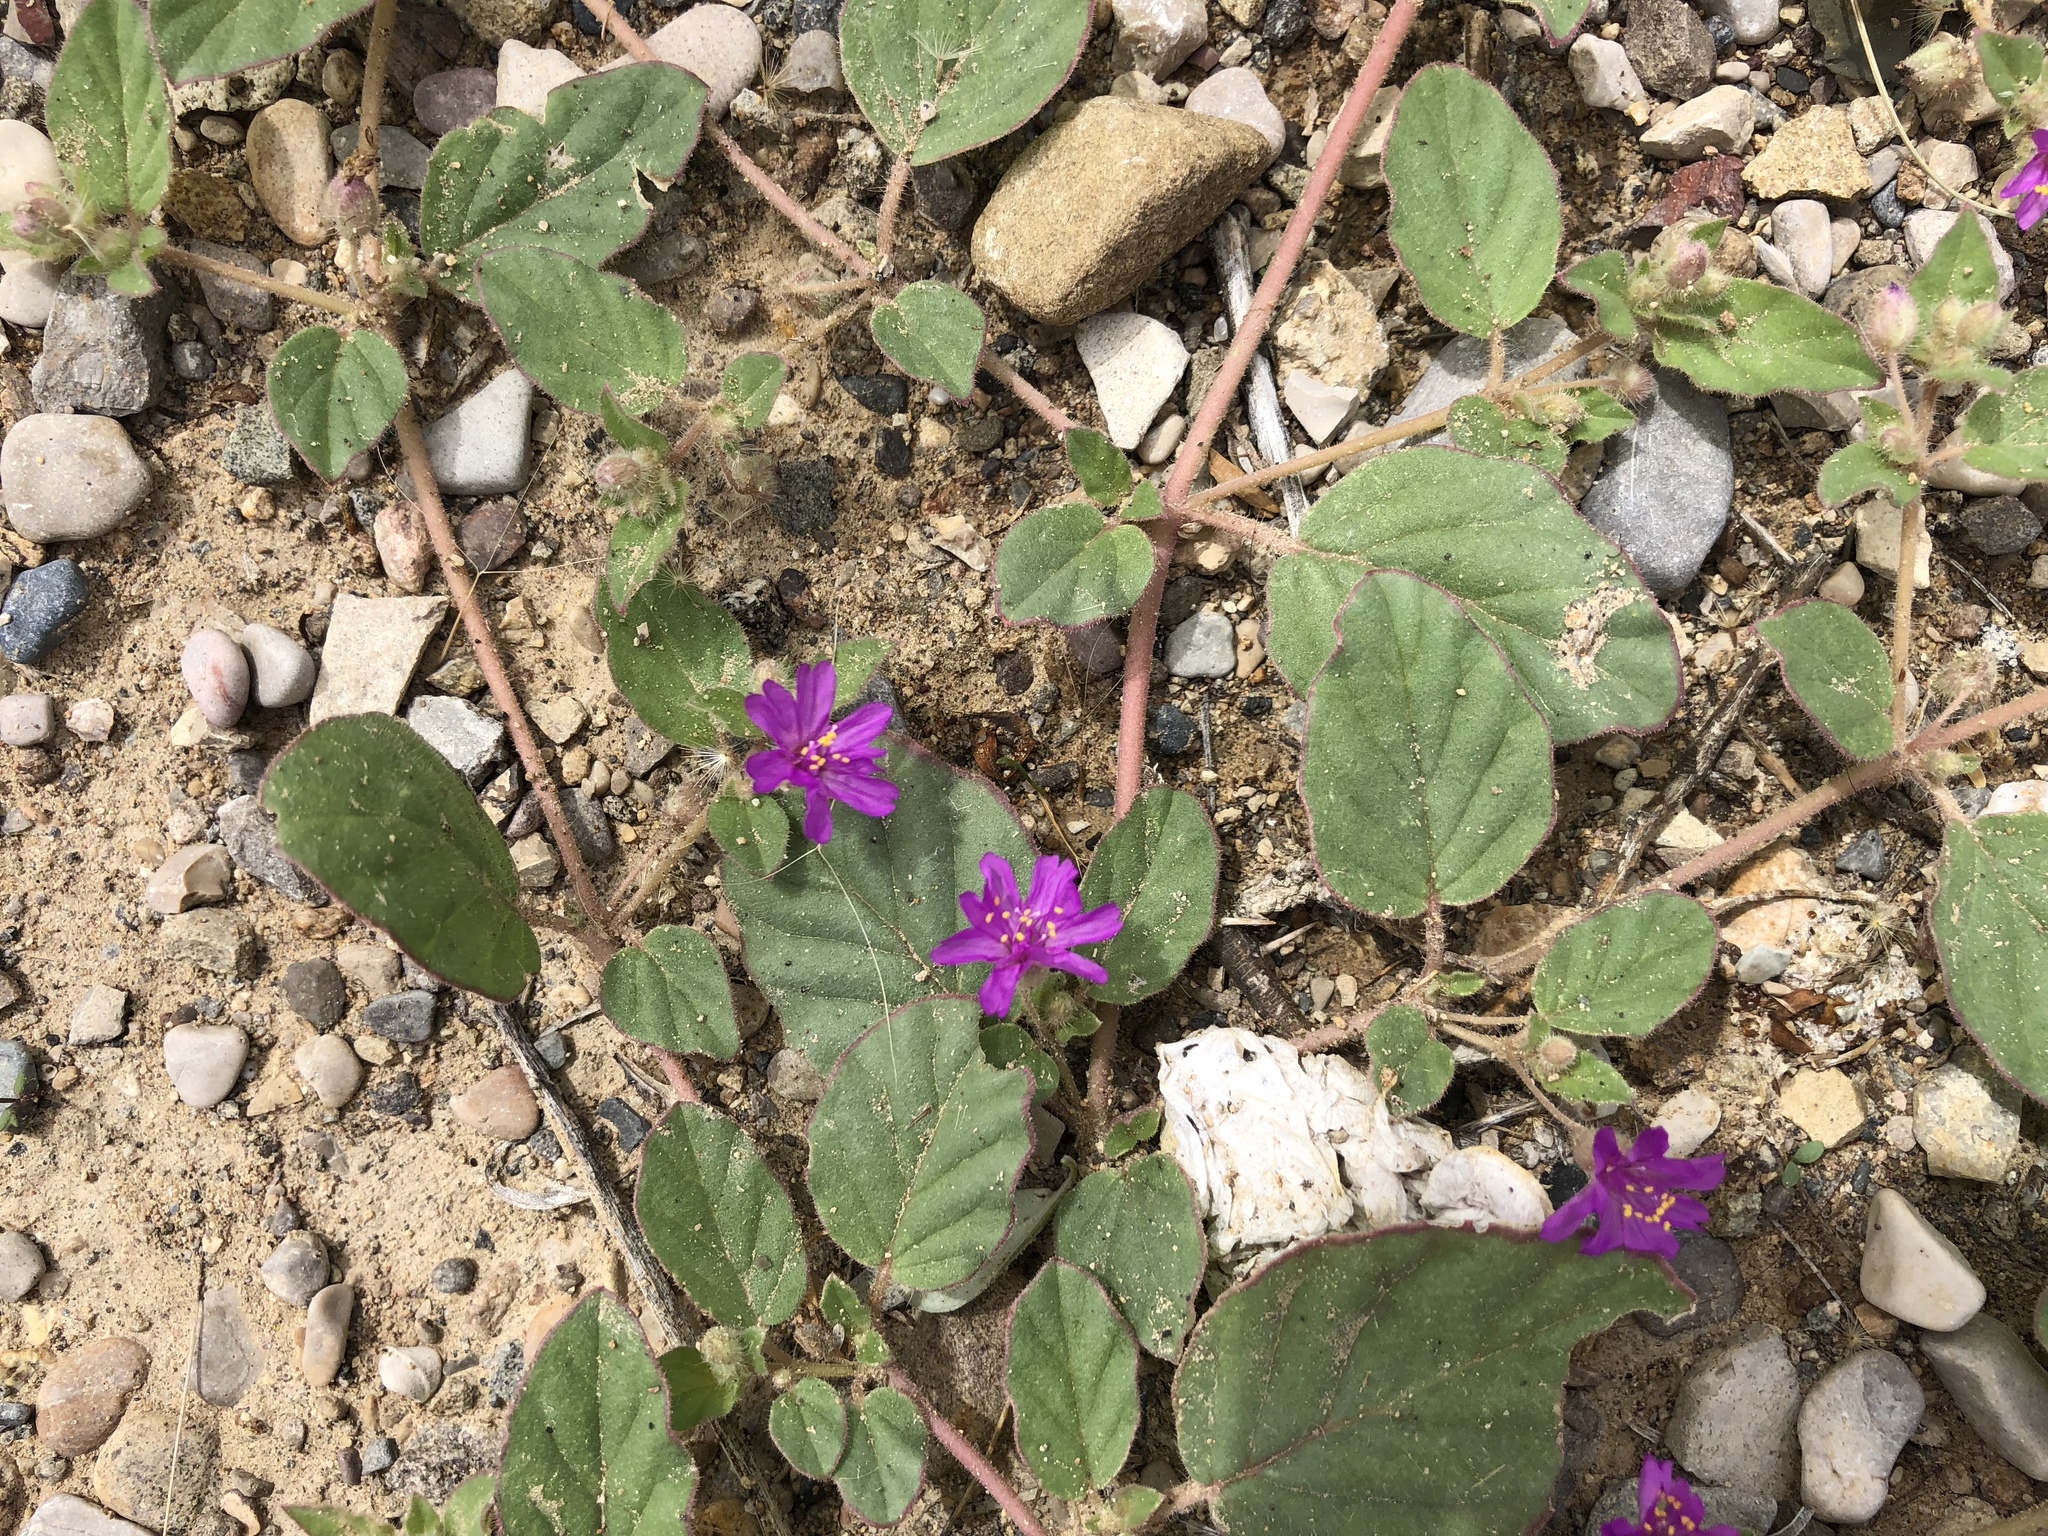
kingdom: Plantae
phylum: Tracheophyta
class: Magnoliopsida
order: Caryophyllales
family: Nyctaginaceae
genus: Allionia
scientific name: Allionia incarnata
